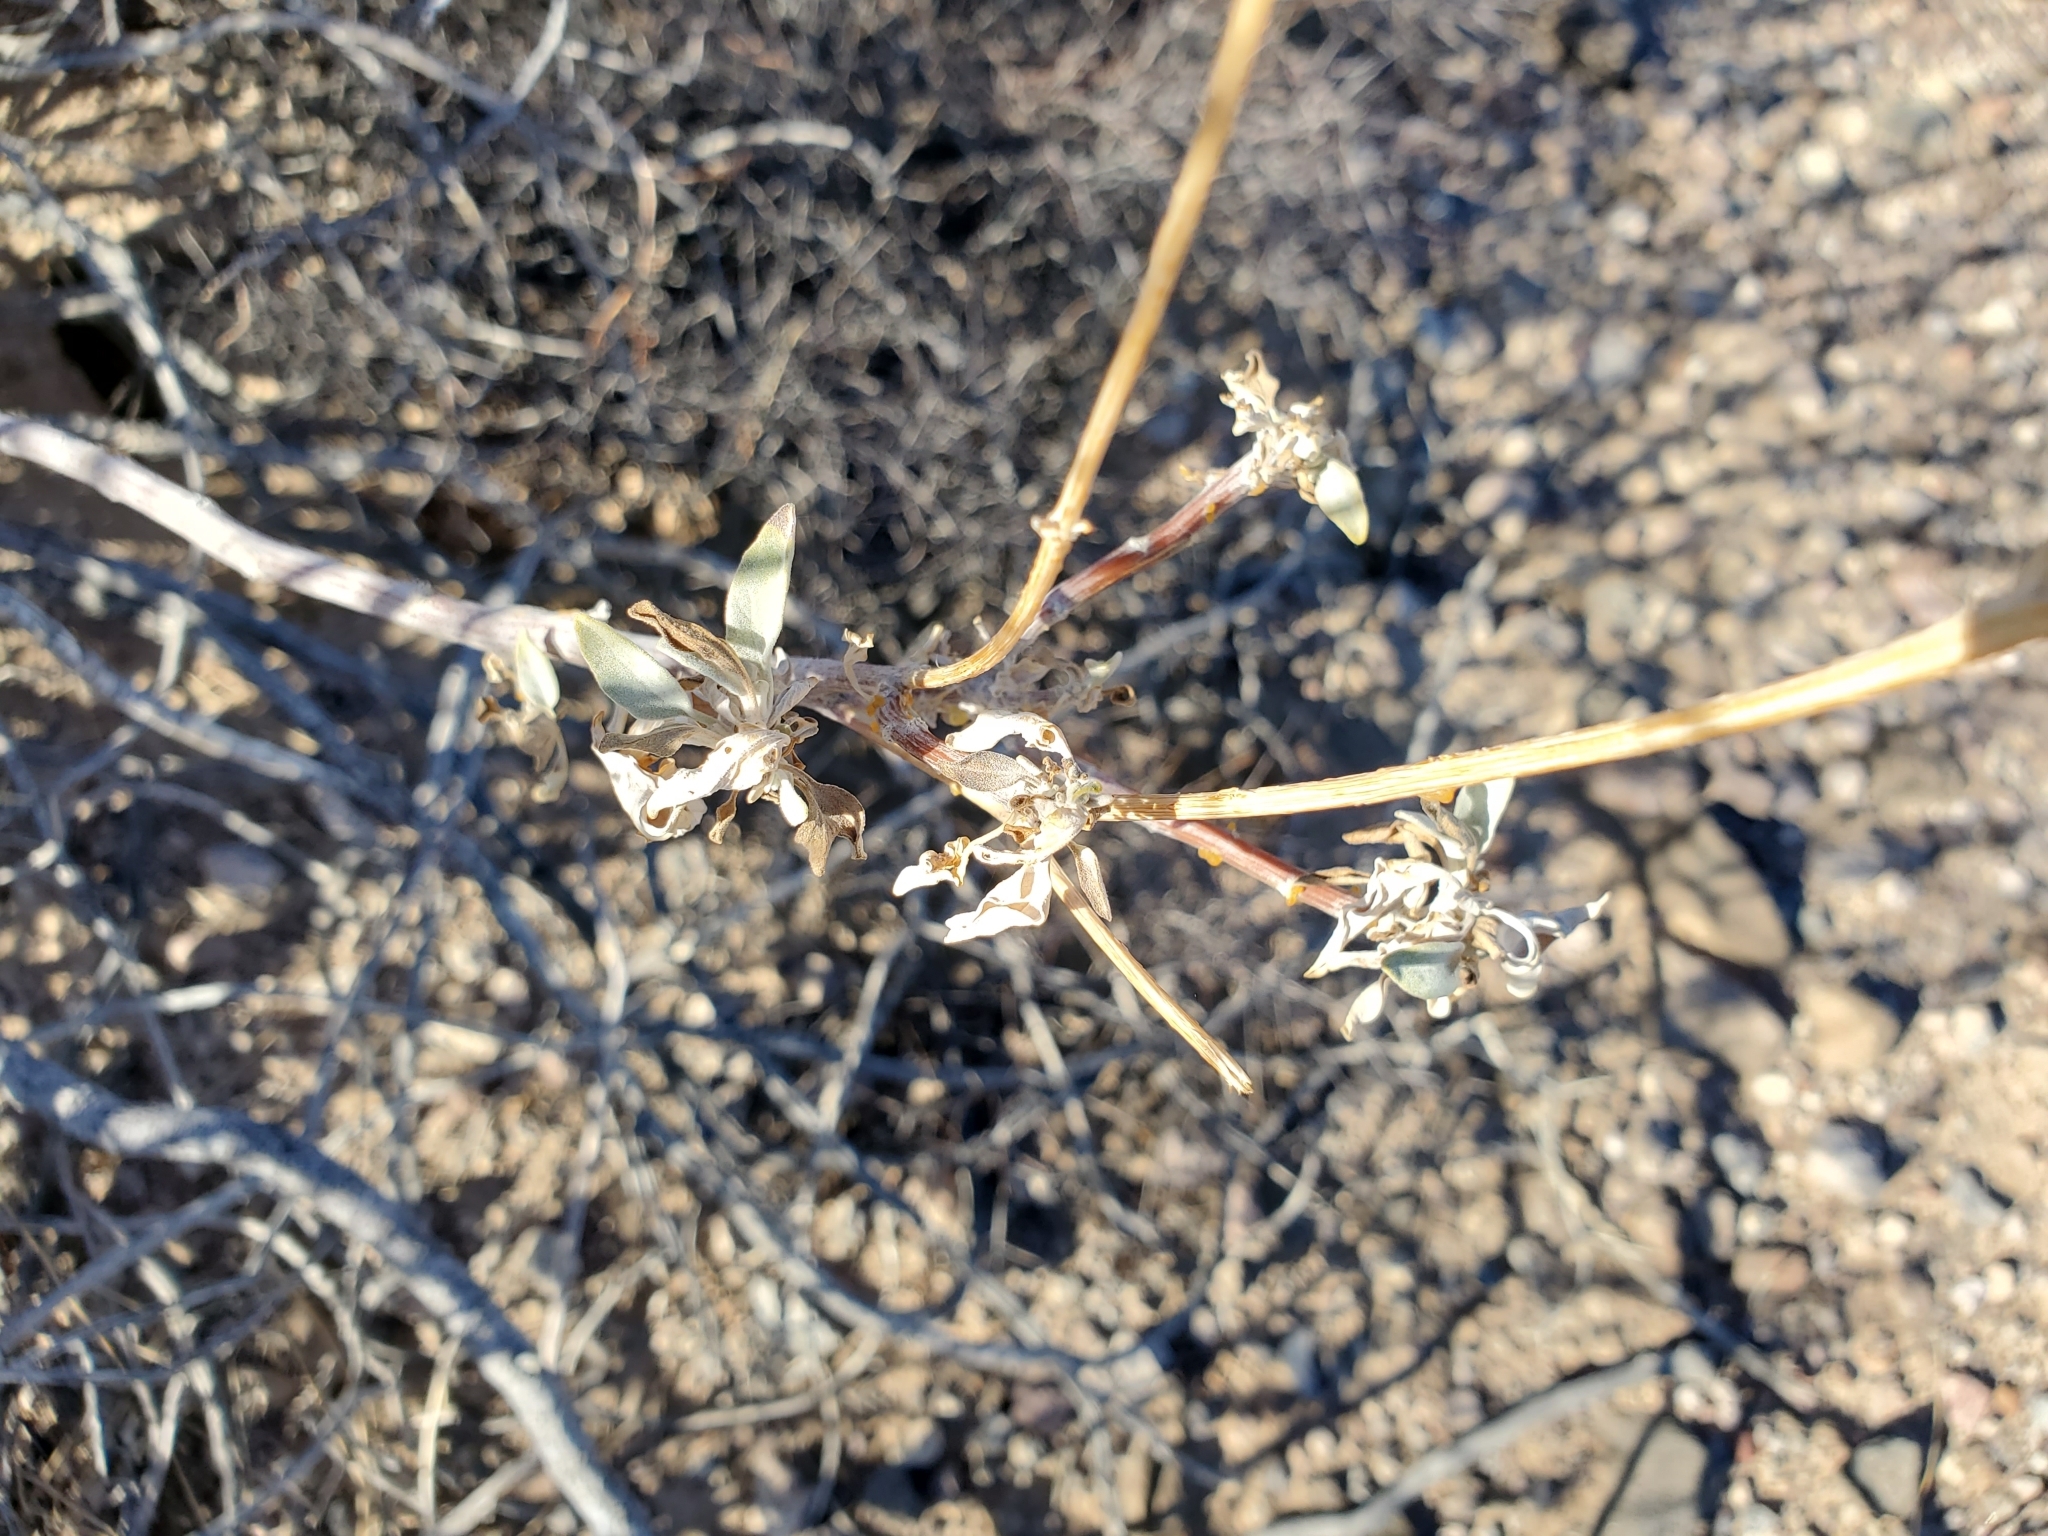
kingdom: Plantae
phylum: Tracheophyta
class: Magnoliopsida
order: Asterales
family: Asteraceae
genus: Encelia
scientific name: Encelia farinosa
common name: Brittlebush
